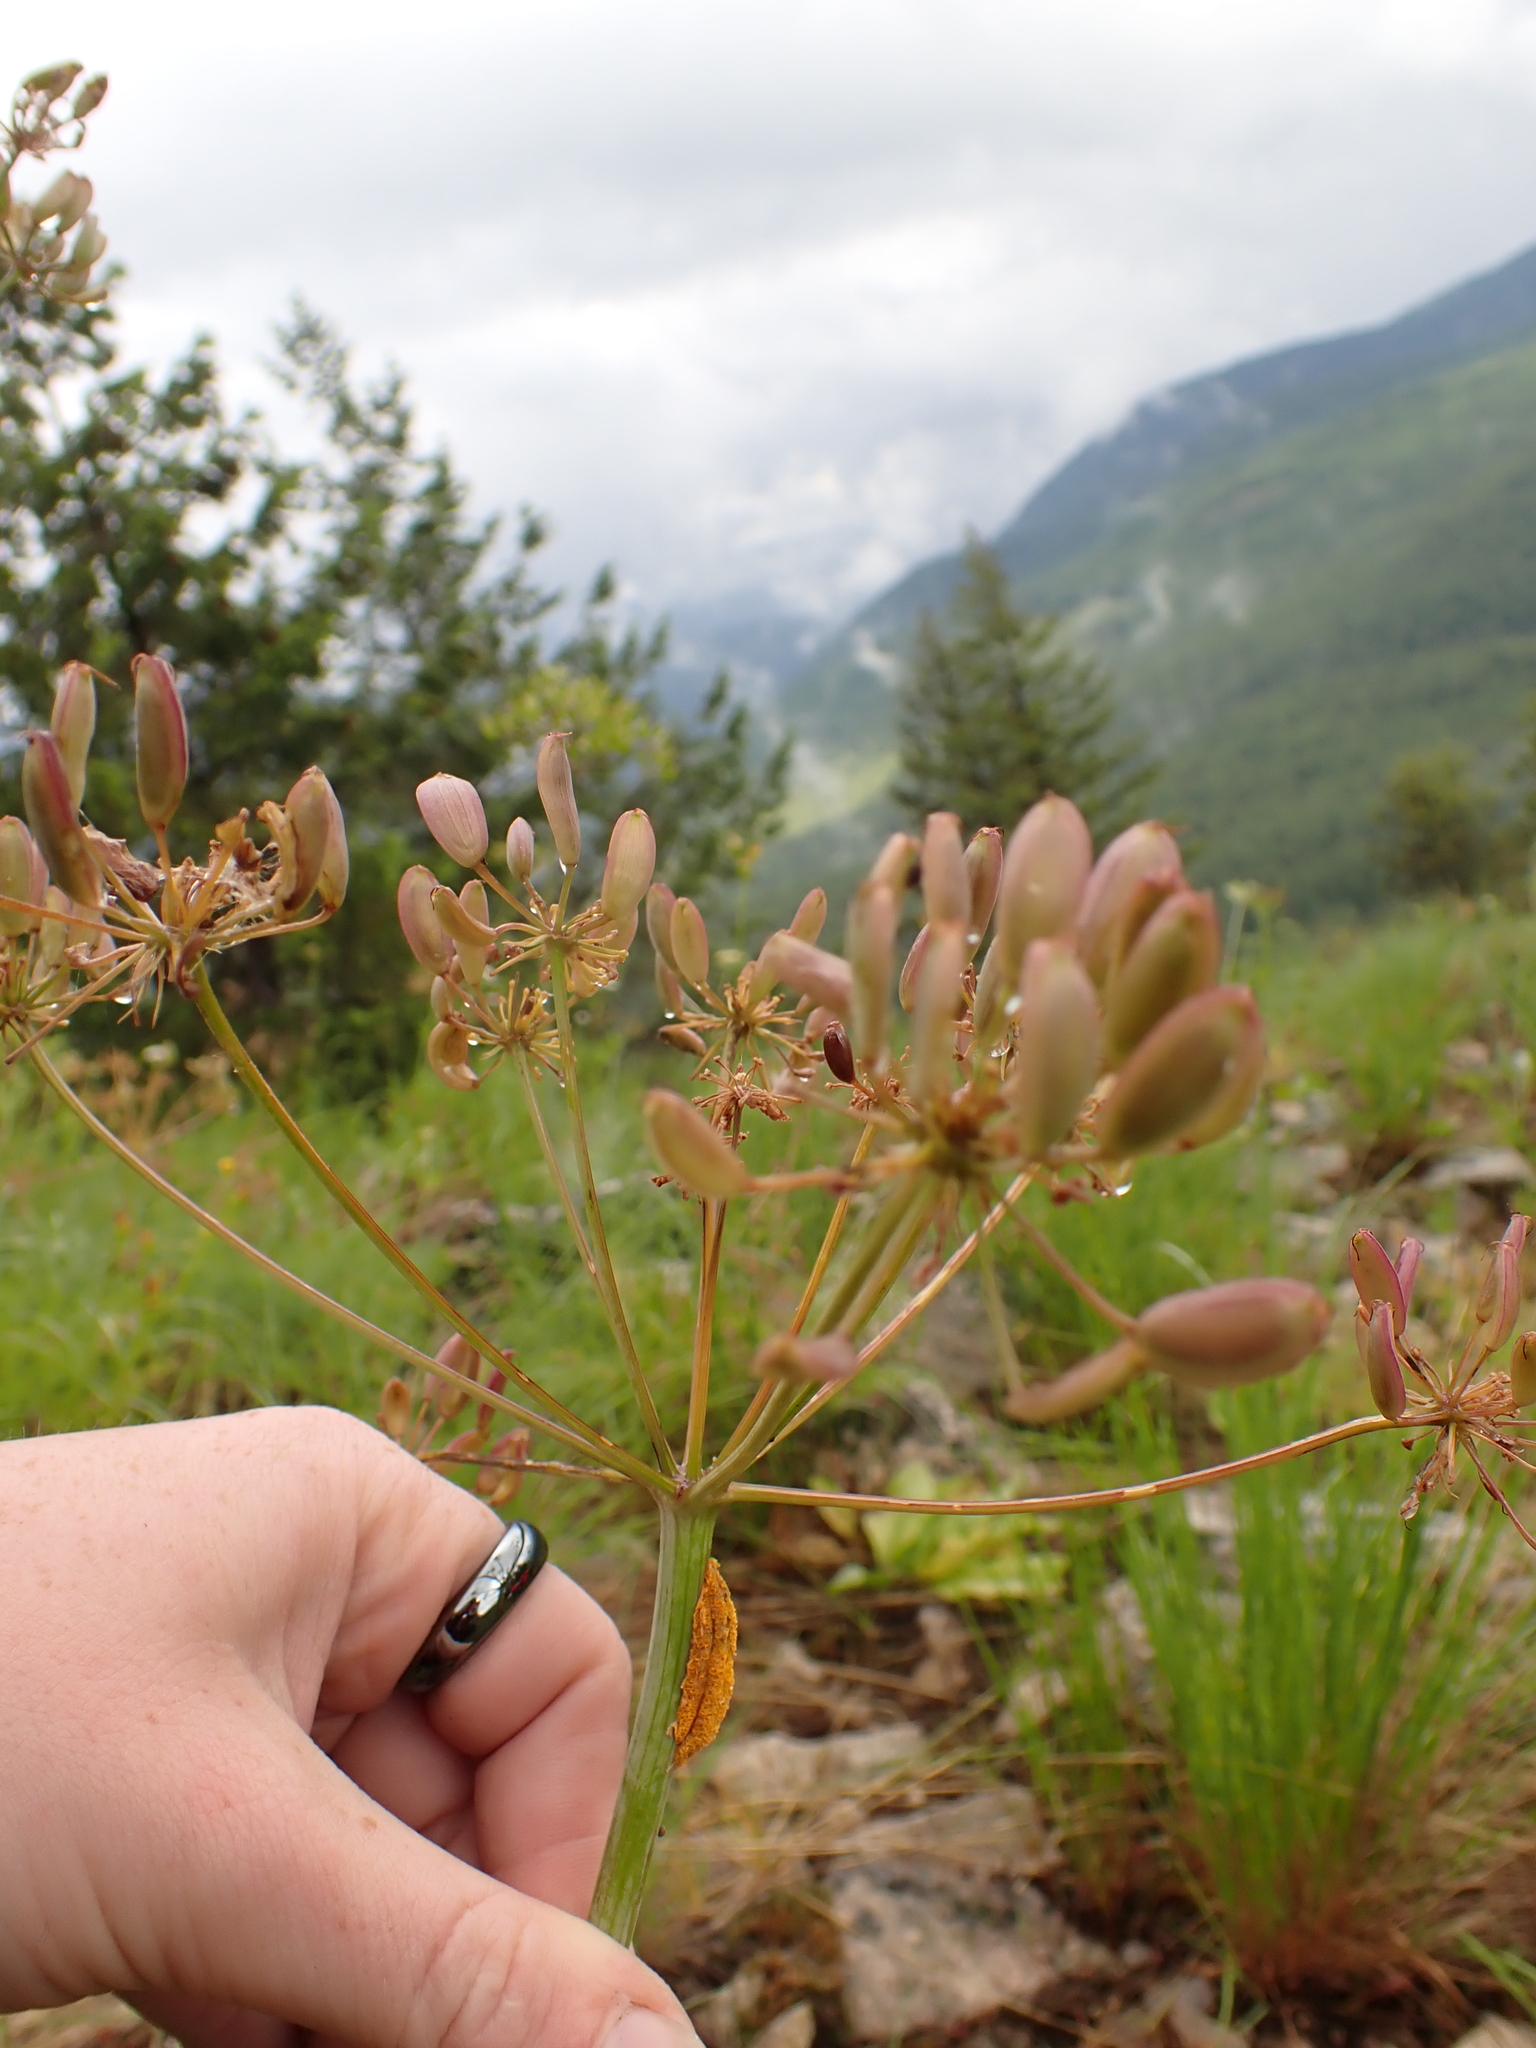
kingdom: Plantae
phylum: Tracheophyta
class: Magnoliopsida
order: Apiales
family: Apiaceae
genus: Lomatium
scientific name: Lomatium multifidum
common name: Carrot-leaved biscuitroot
